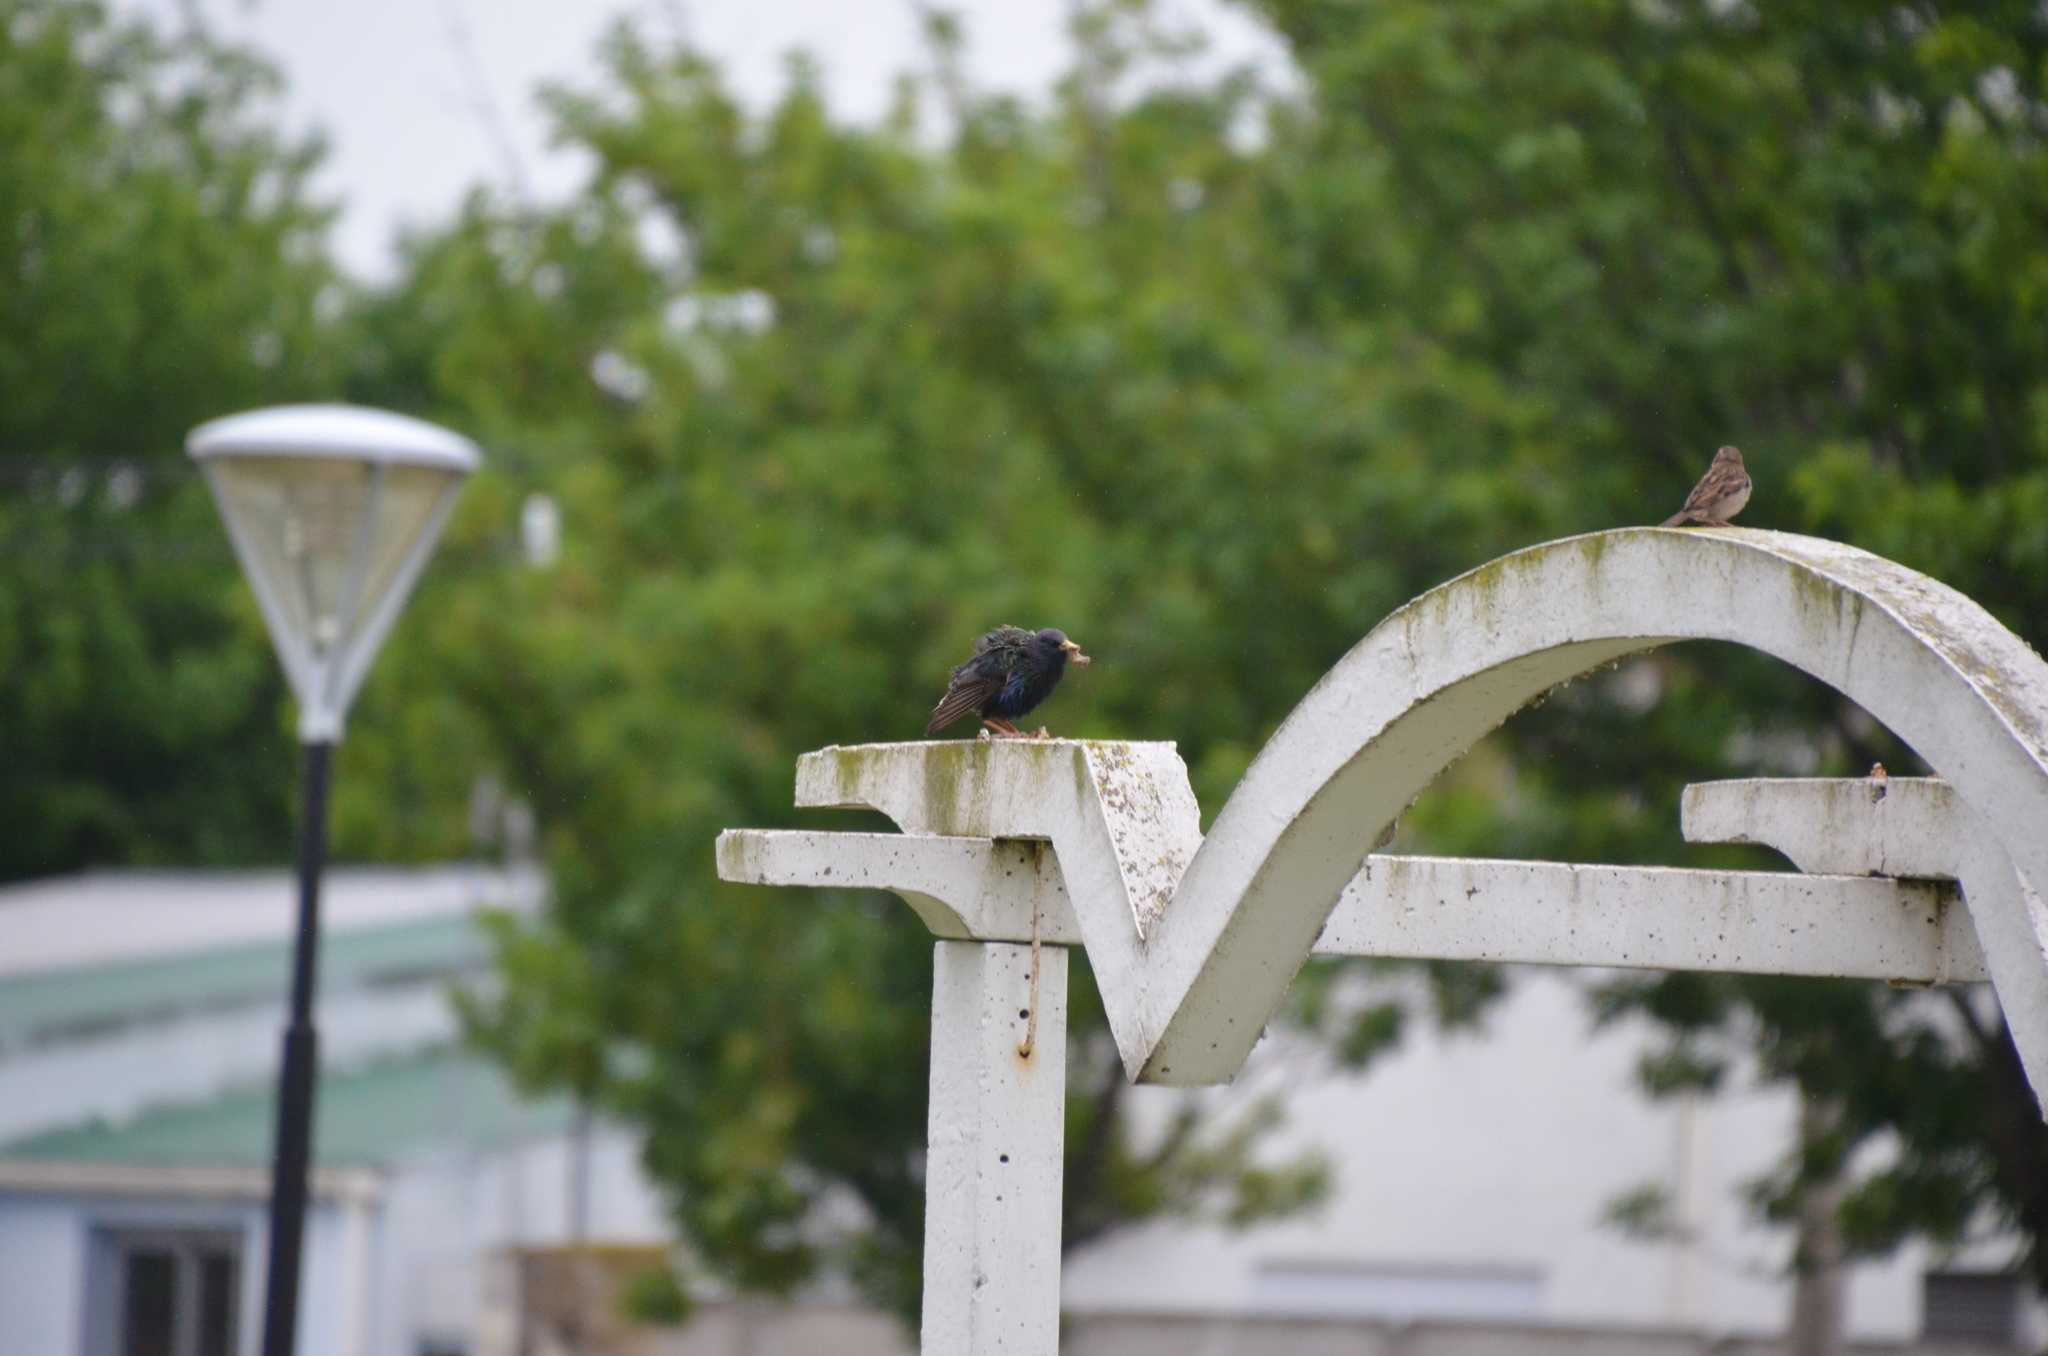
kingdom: Animalia
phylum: Chordata
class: Aves
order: Passeriformes
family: Sturnidae
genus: Sturnus
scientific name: Sturnus vulgaris
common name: Common starling
